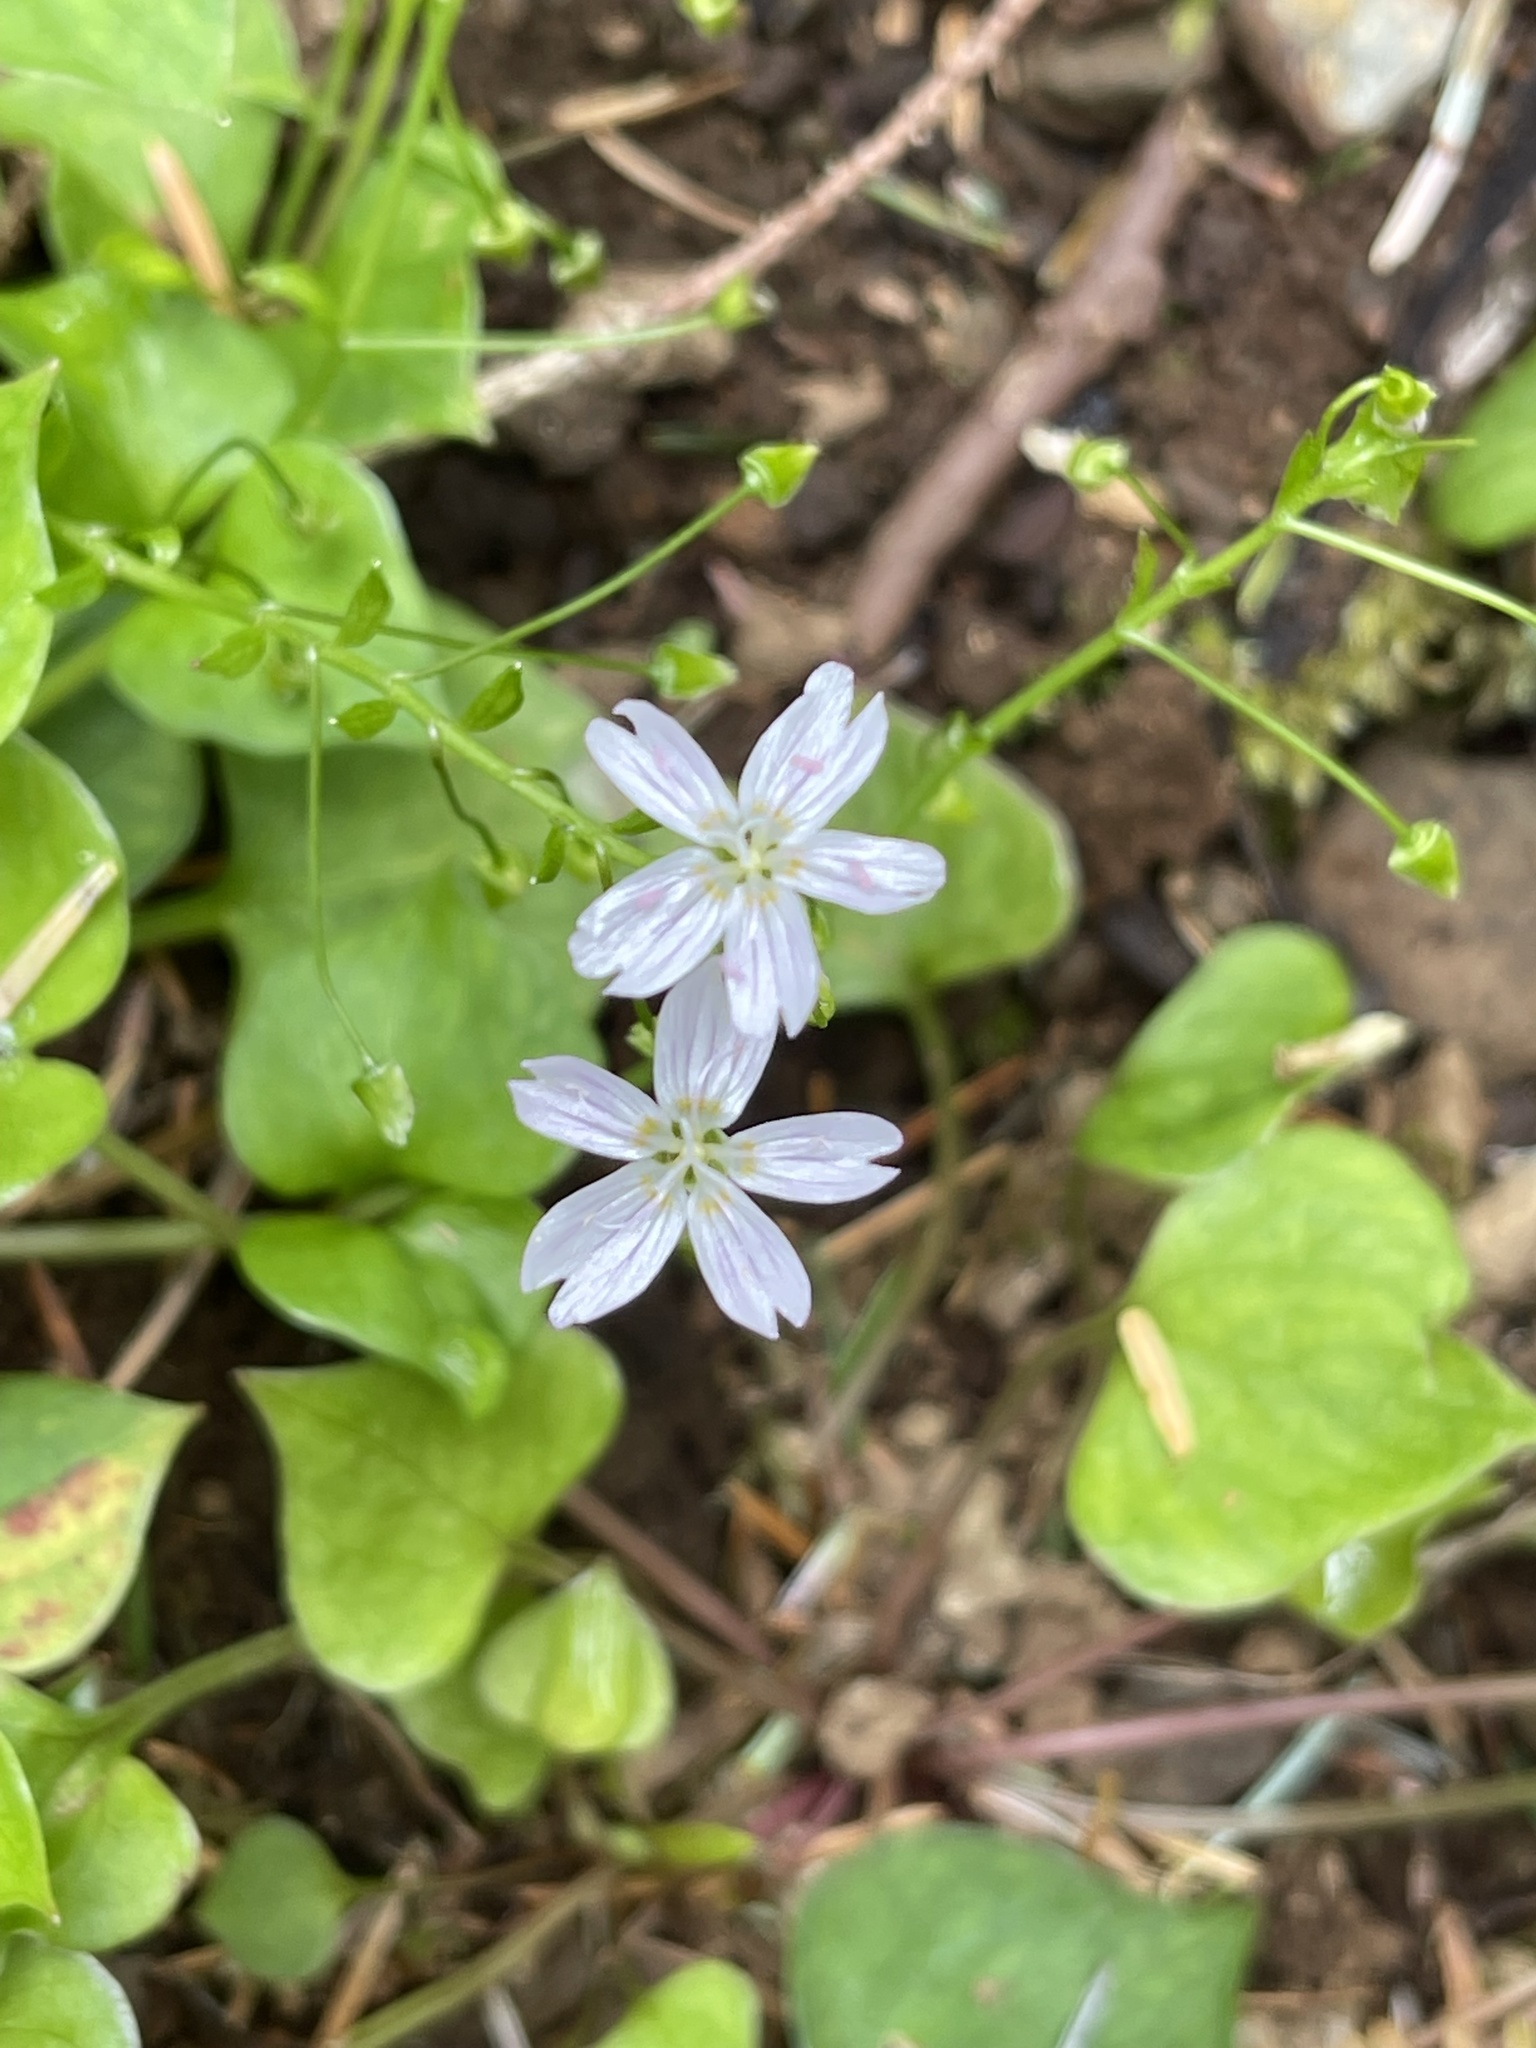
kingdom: Plantae
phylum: Tracheophyta
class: Magnoliopsida
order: Caryophyllales
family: Montiaceae
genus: Claytonia
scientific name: Claytonia sibirica
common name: Pink purslane
